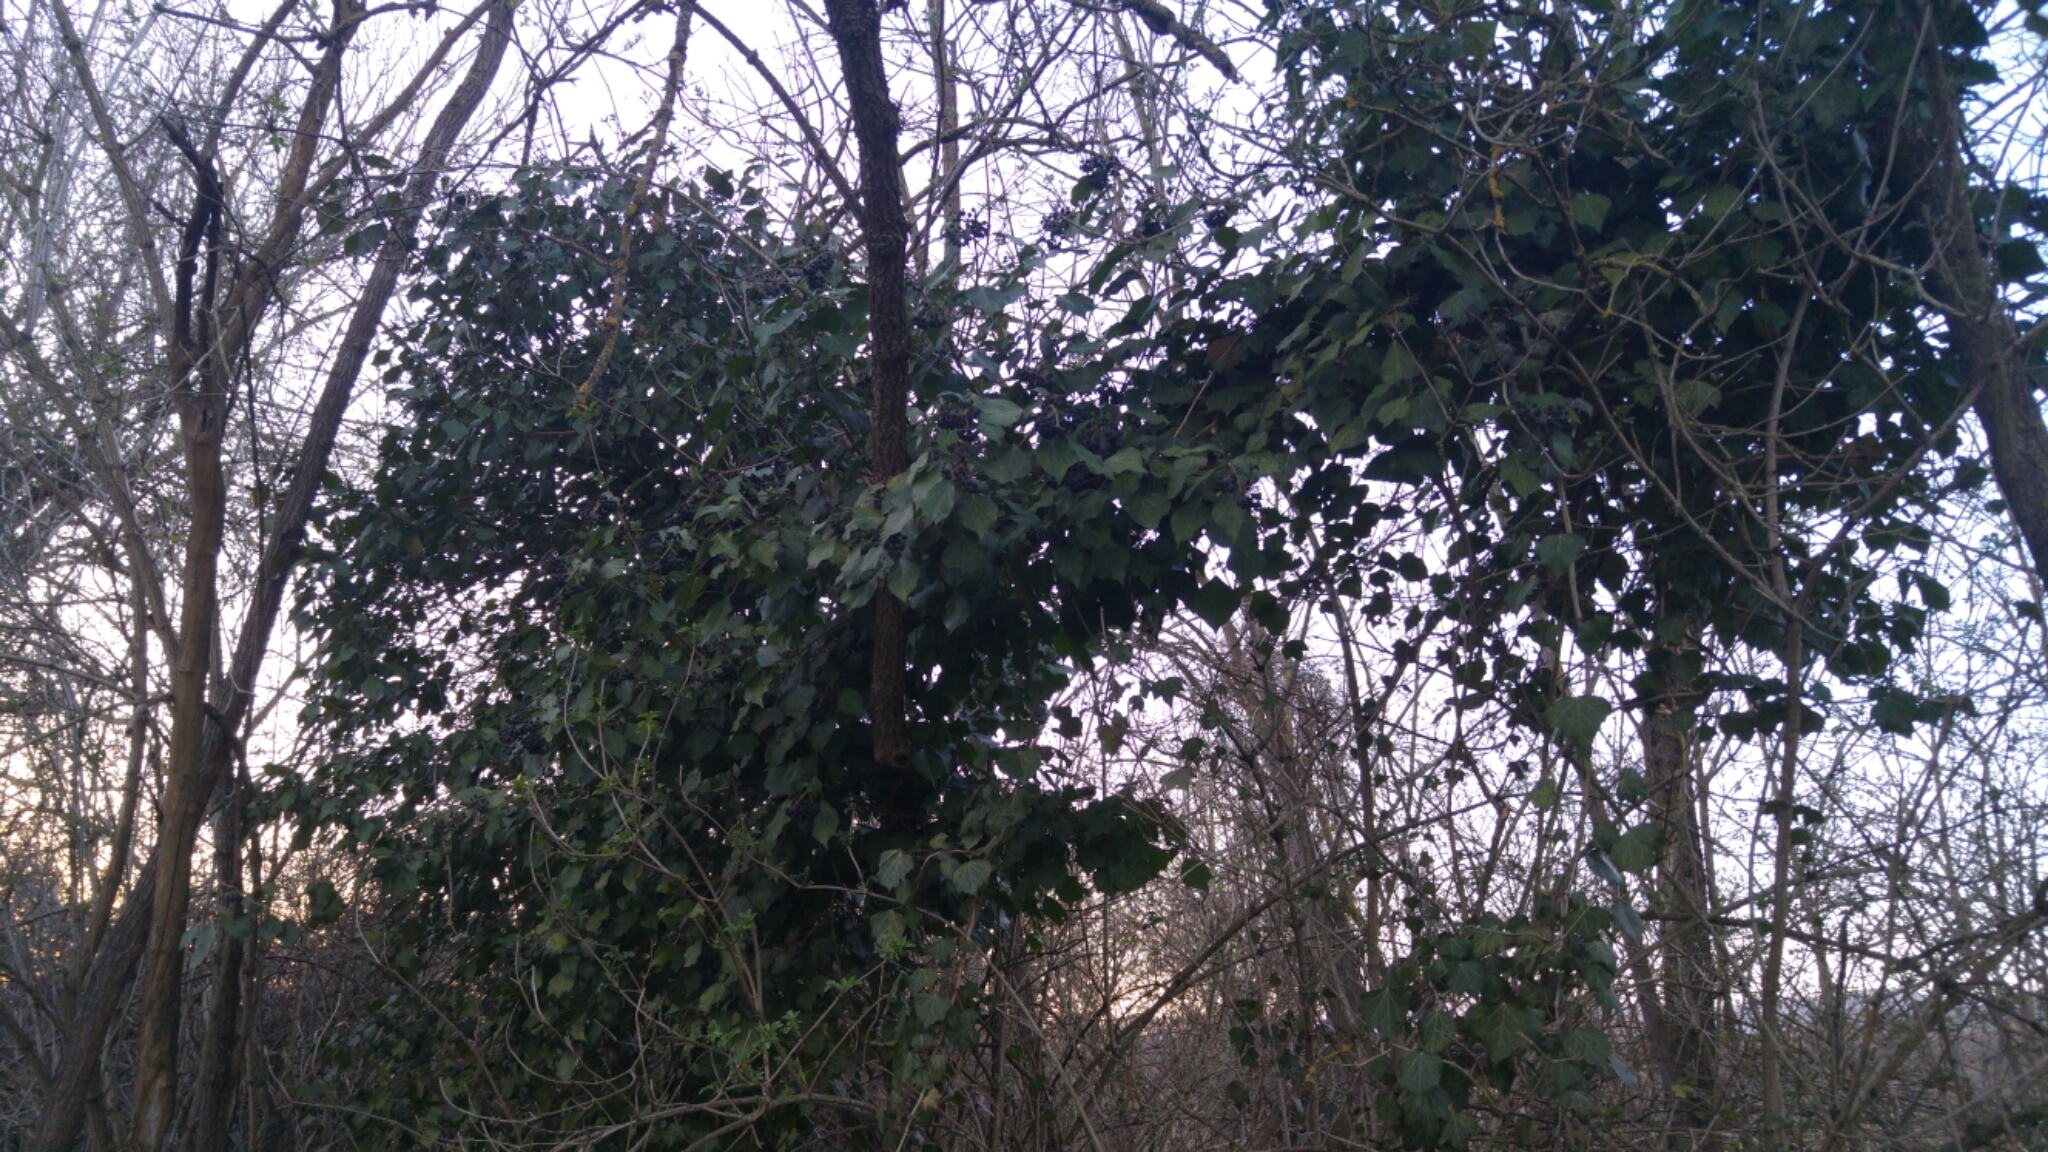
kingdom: Plantae
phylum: Tracheophyta
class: Magnoliopsida
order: Apiales
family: Araliaceae
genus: Hedera
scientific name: Hedera helix
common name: Ivy
